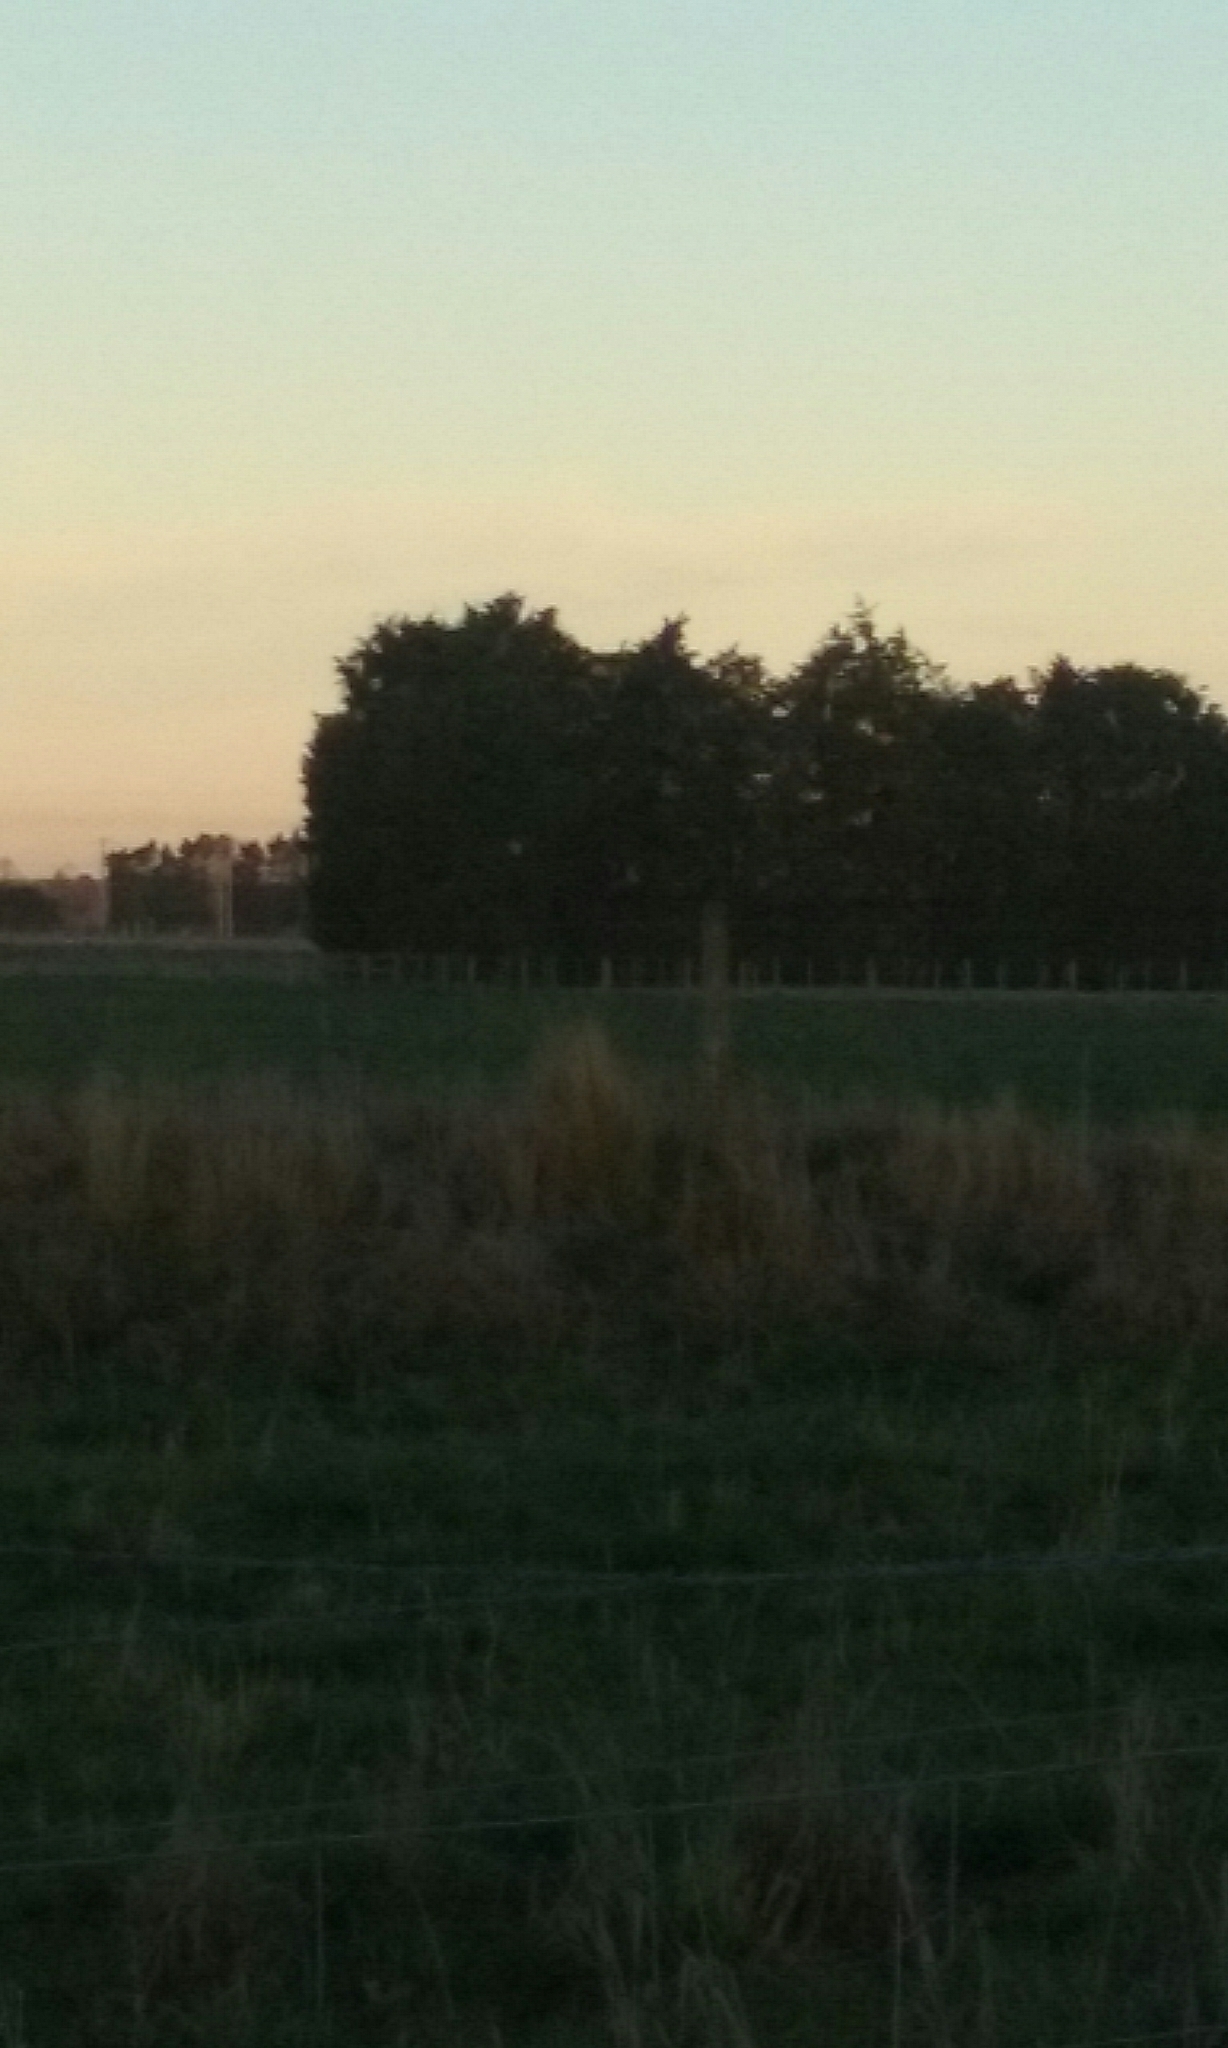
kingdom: Plantae
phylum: Tracheophyta
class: Liliopsida
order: Poales
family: Poaceae
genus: Poa
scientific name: Poa cita
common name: Silver tussock
